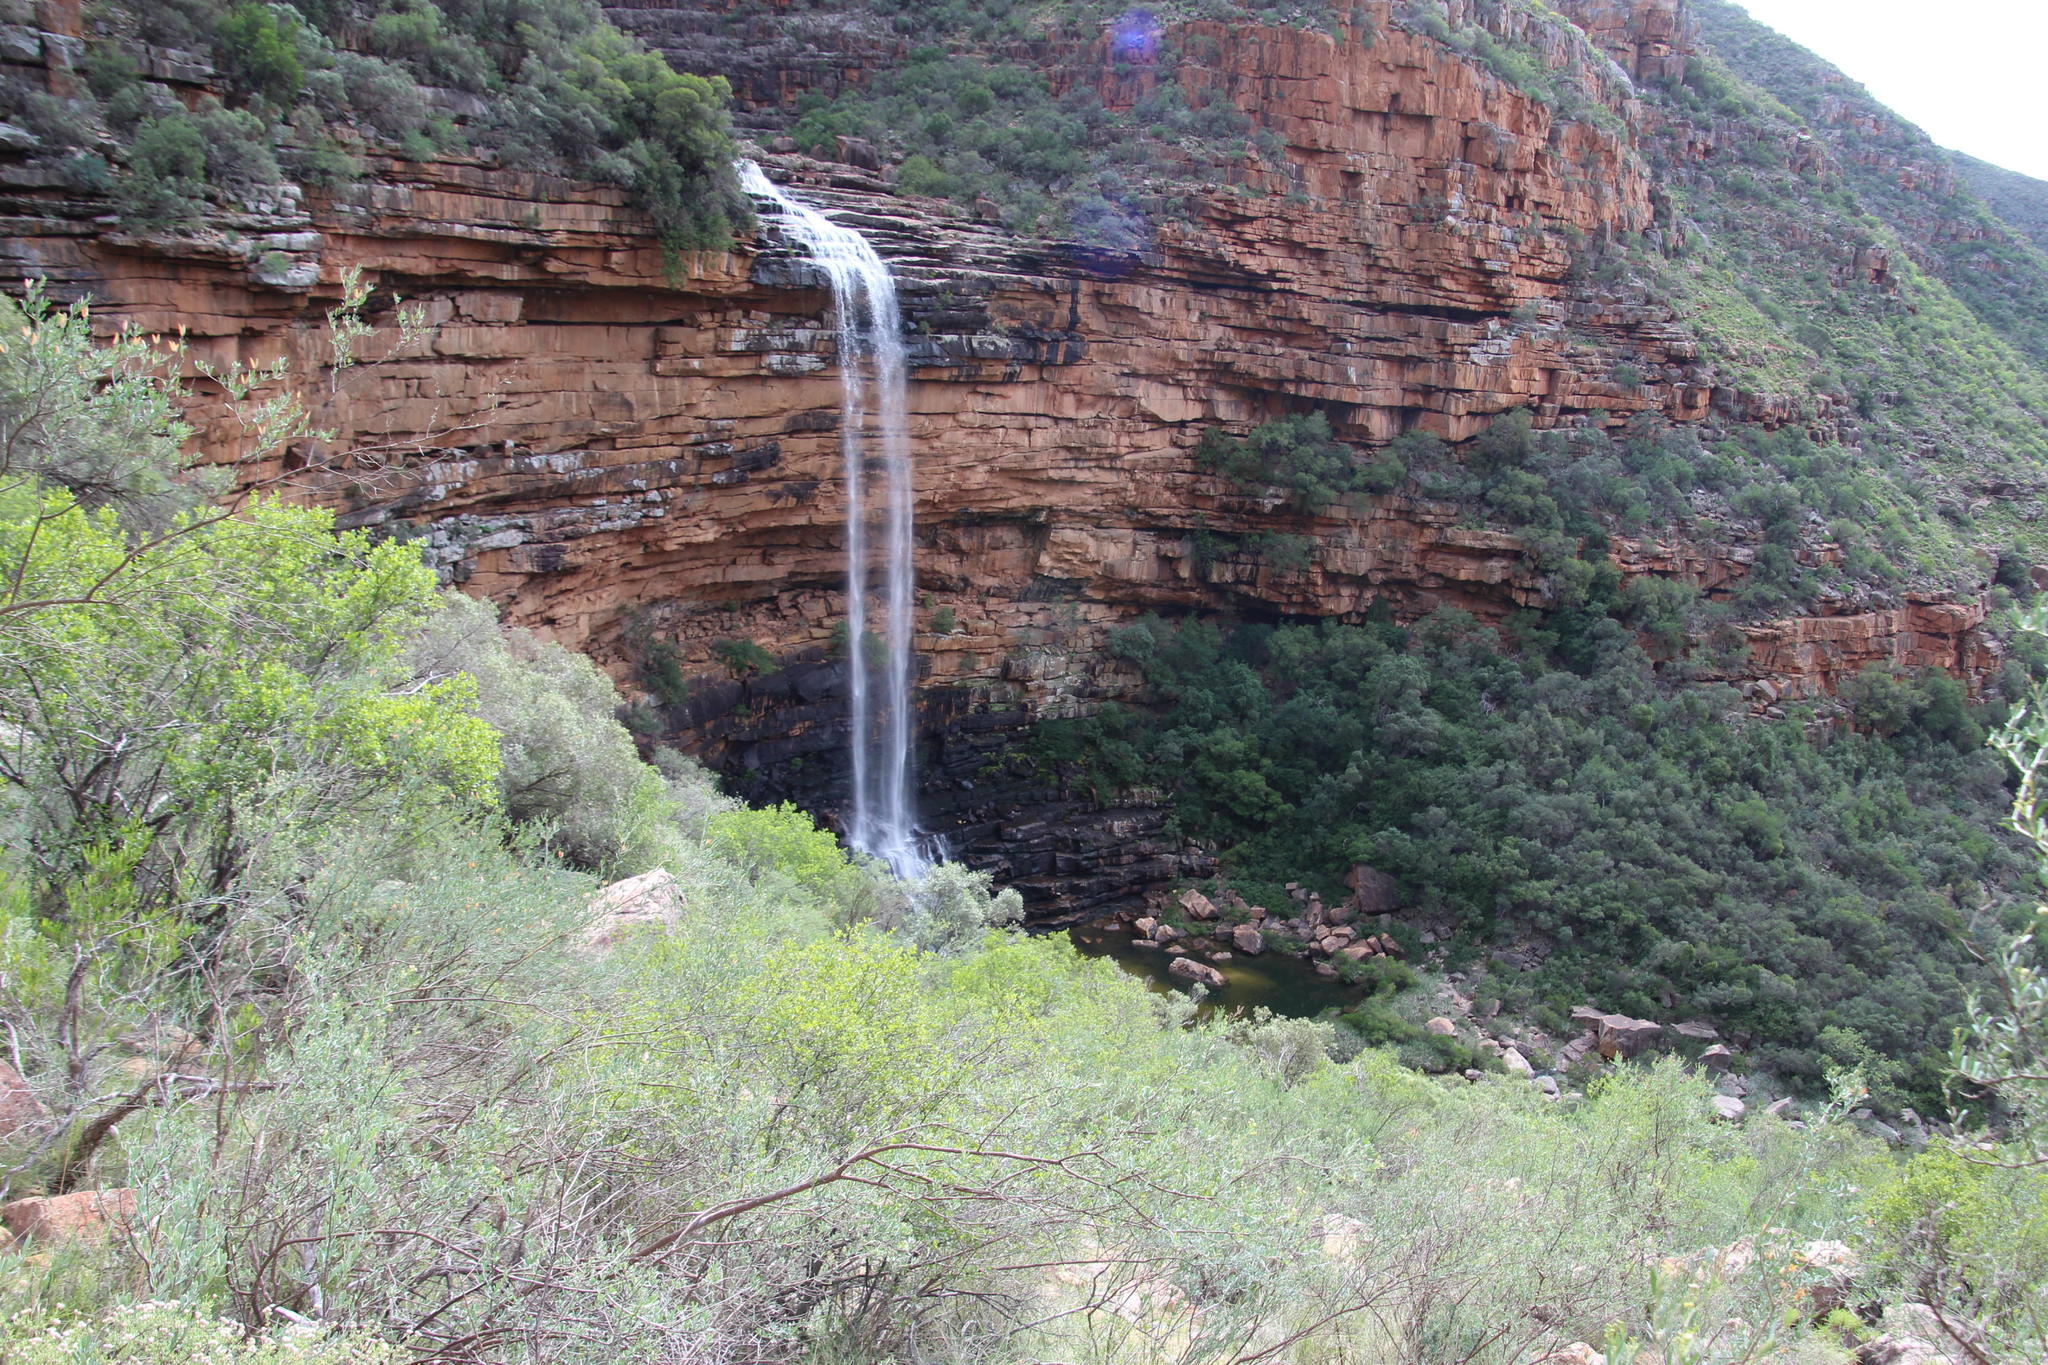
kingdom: Plantae
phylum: Tracheophyta
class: Magnoliopsida
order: Solanales
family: Montiniaceae
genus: Montinia
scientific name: Montinia caryophyllacea
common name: Wild clove-bush
